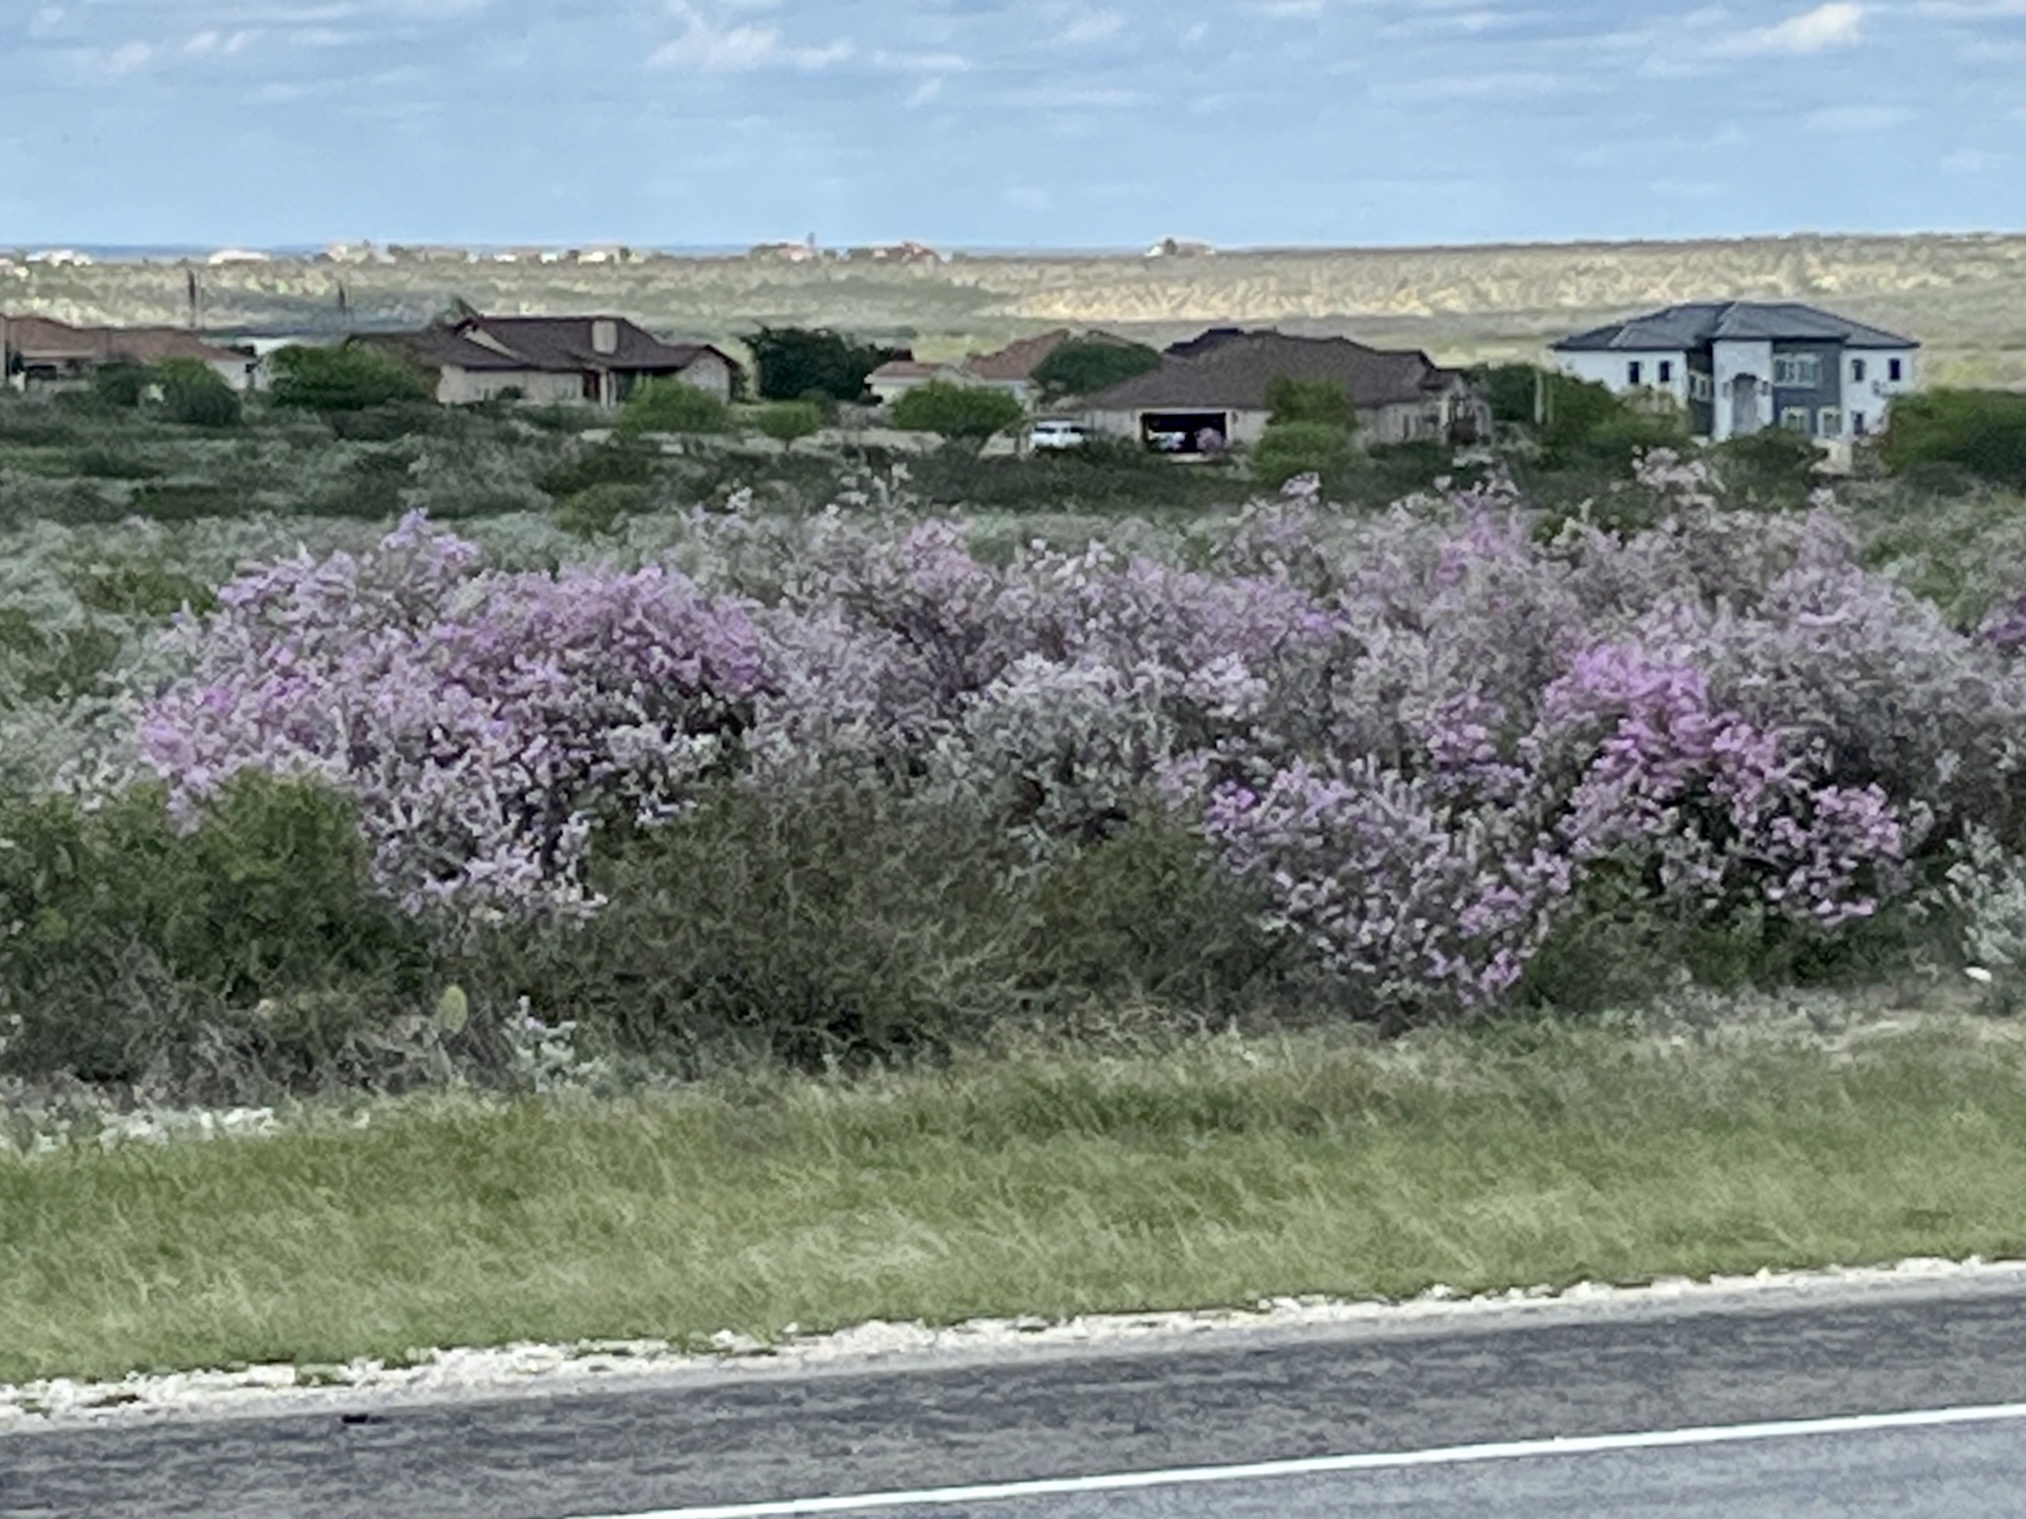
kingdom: Plantae
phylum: Tracheophyta
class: Magnoliopsida
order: Lamiales
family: Scrophulariaceae
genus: Leucophyllum
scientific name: Leucophyllum frutescens
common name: Texas silverleaf
